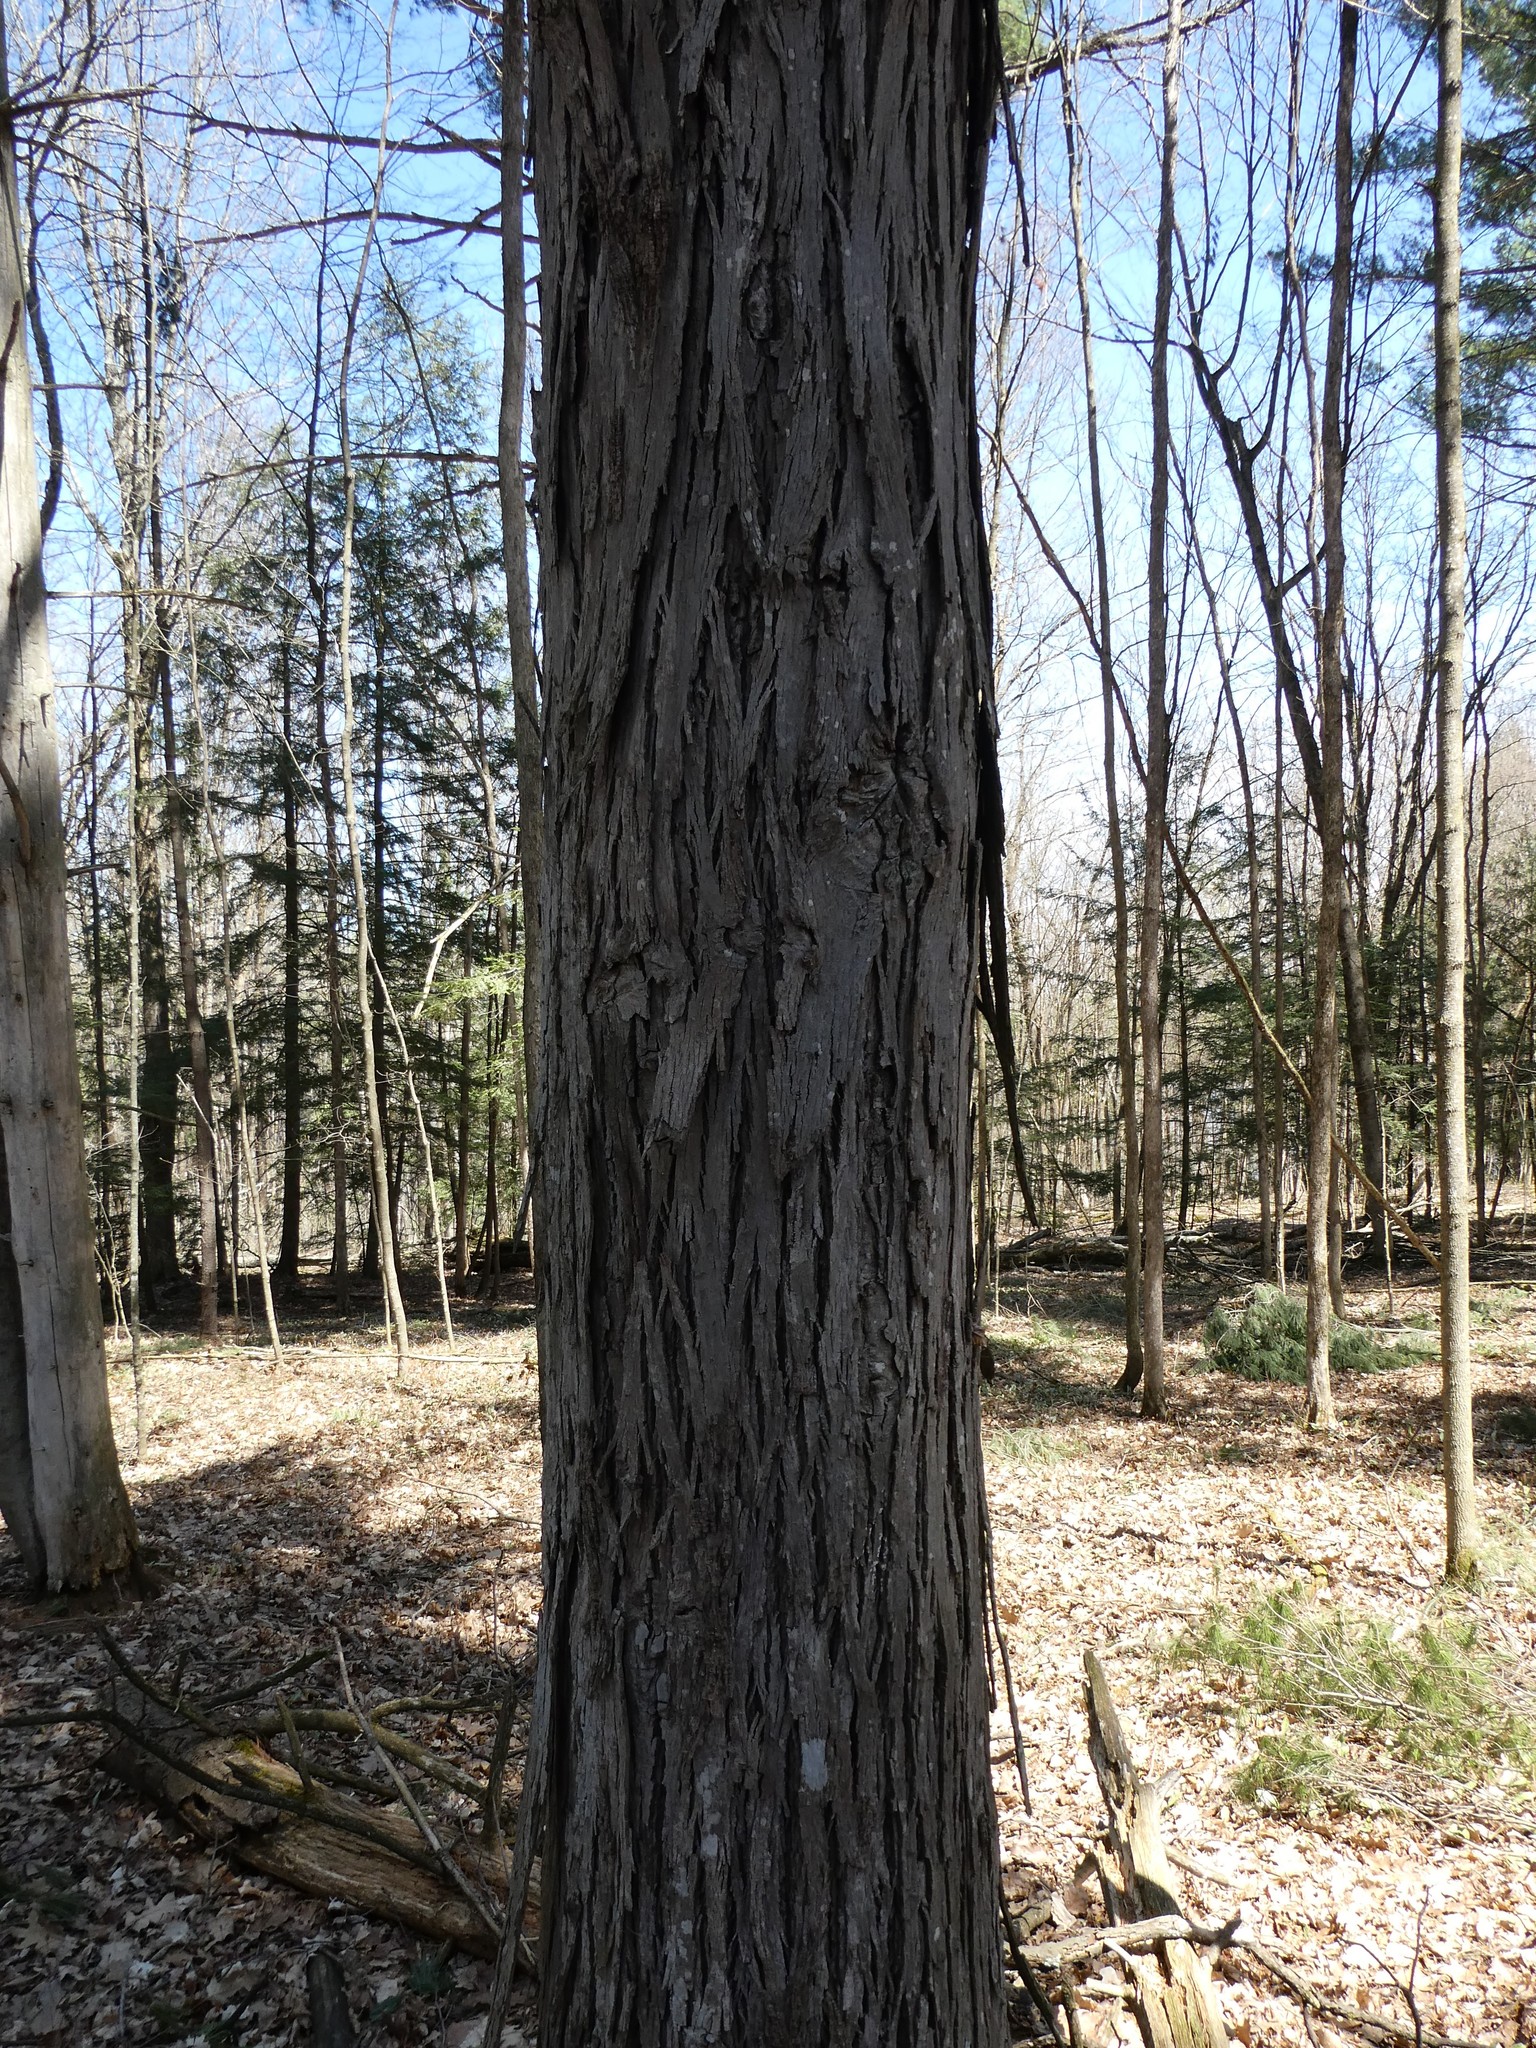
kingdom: Plantae
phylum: Tracheophyta
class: Magnoliopsida
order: Fagales
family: Juglandaceae
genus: Carya
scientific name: Carya ovata
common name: Shagbark hickory
